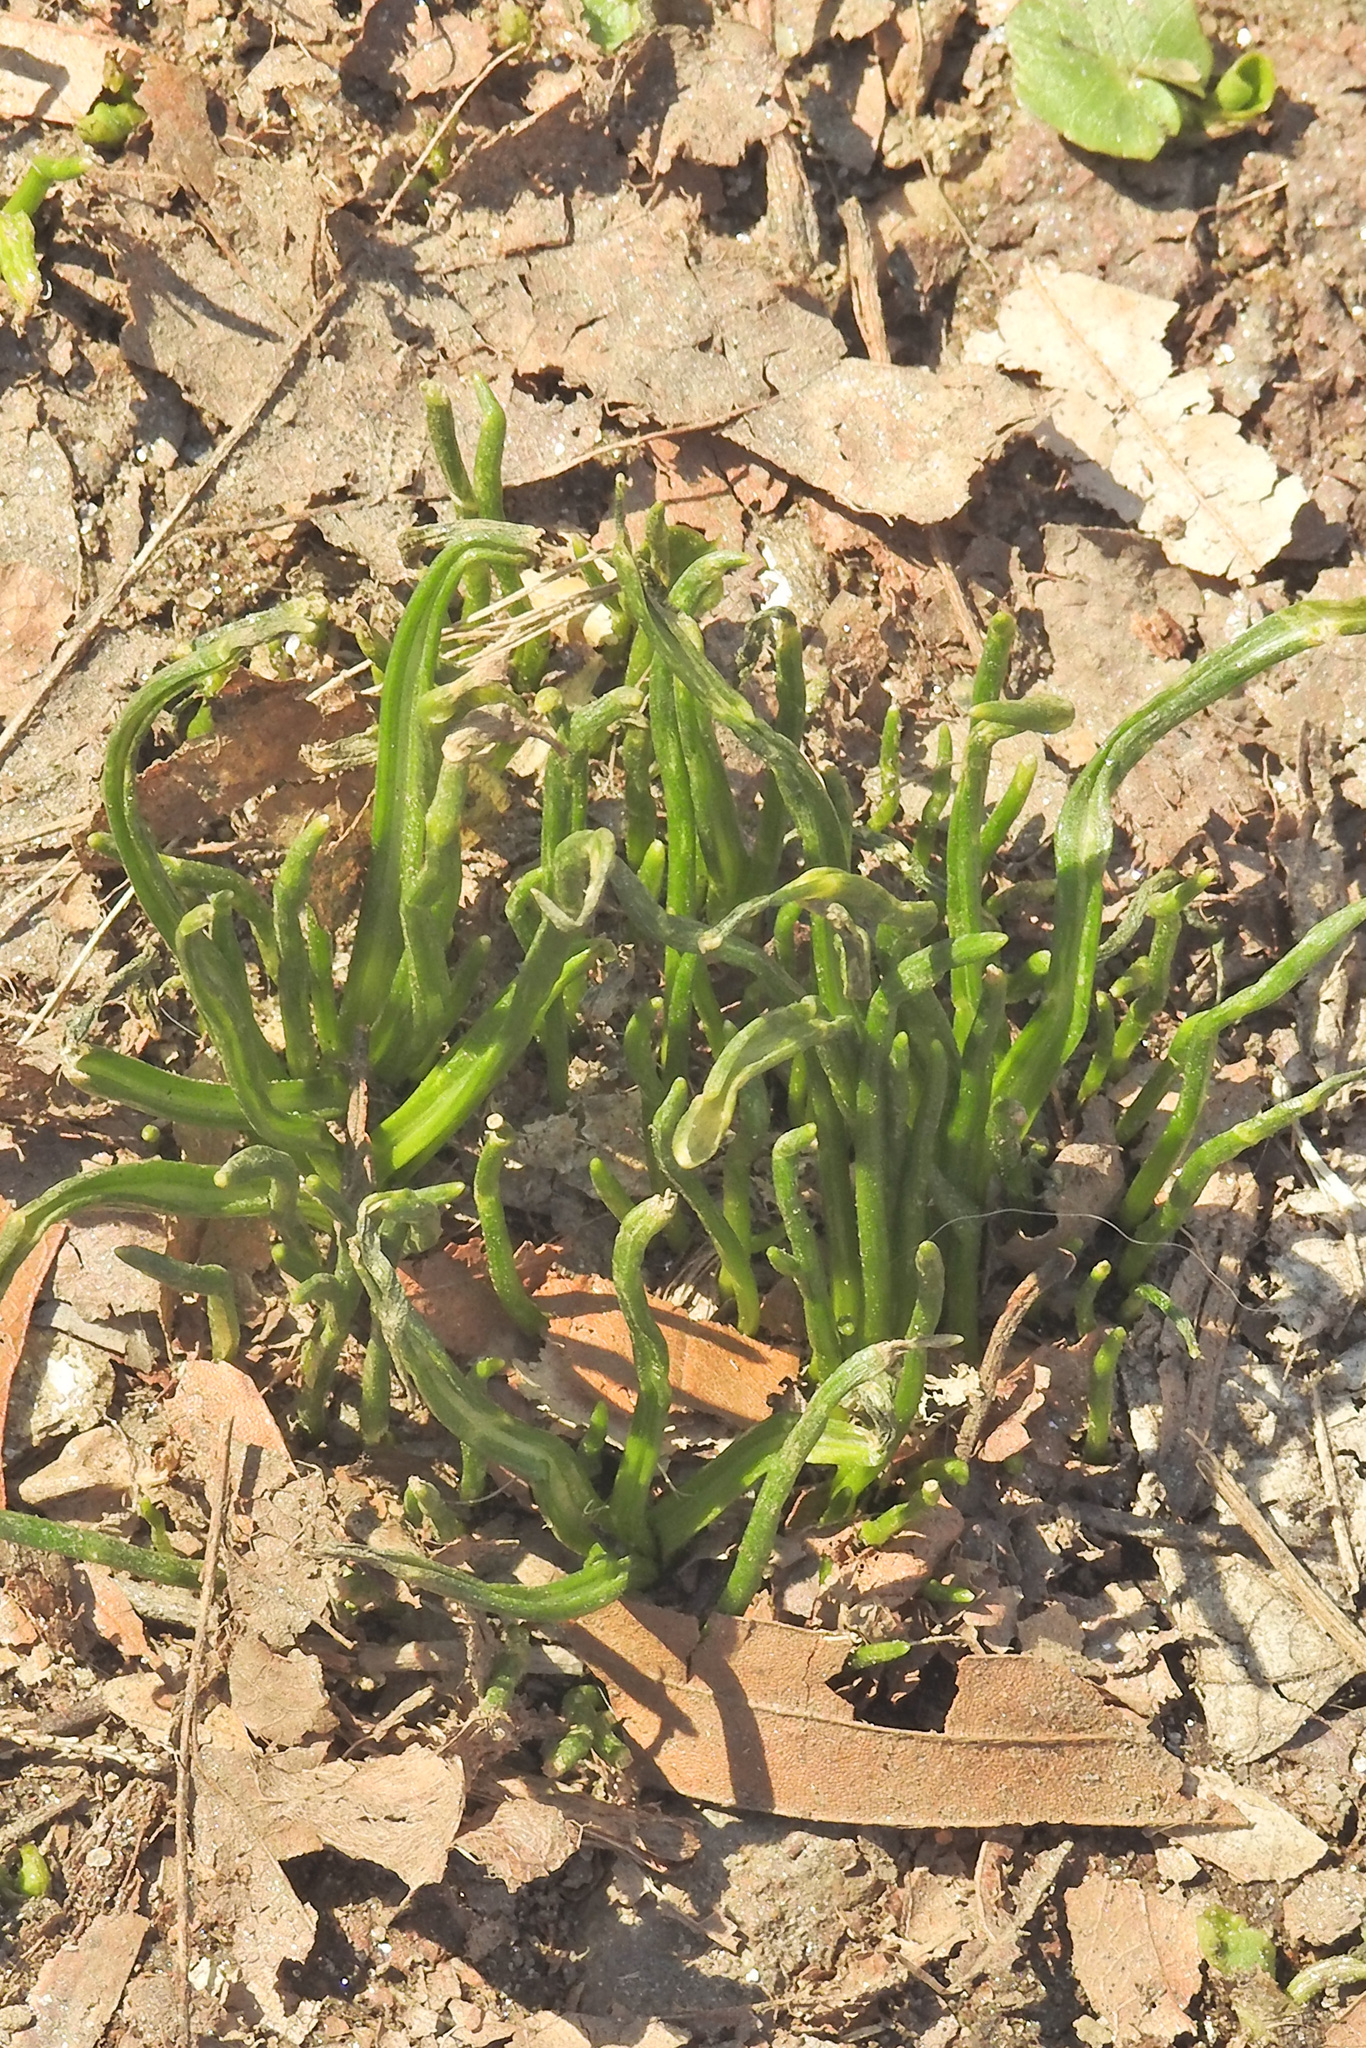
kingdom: Plantae
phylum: Tracheophyta
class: Liliopsida
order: Asparagales
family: Asparagaceae
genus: Ornithogalum
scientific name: Ornithogalum umbellatum
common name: Garden star-of-bethlehem
